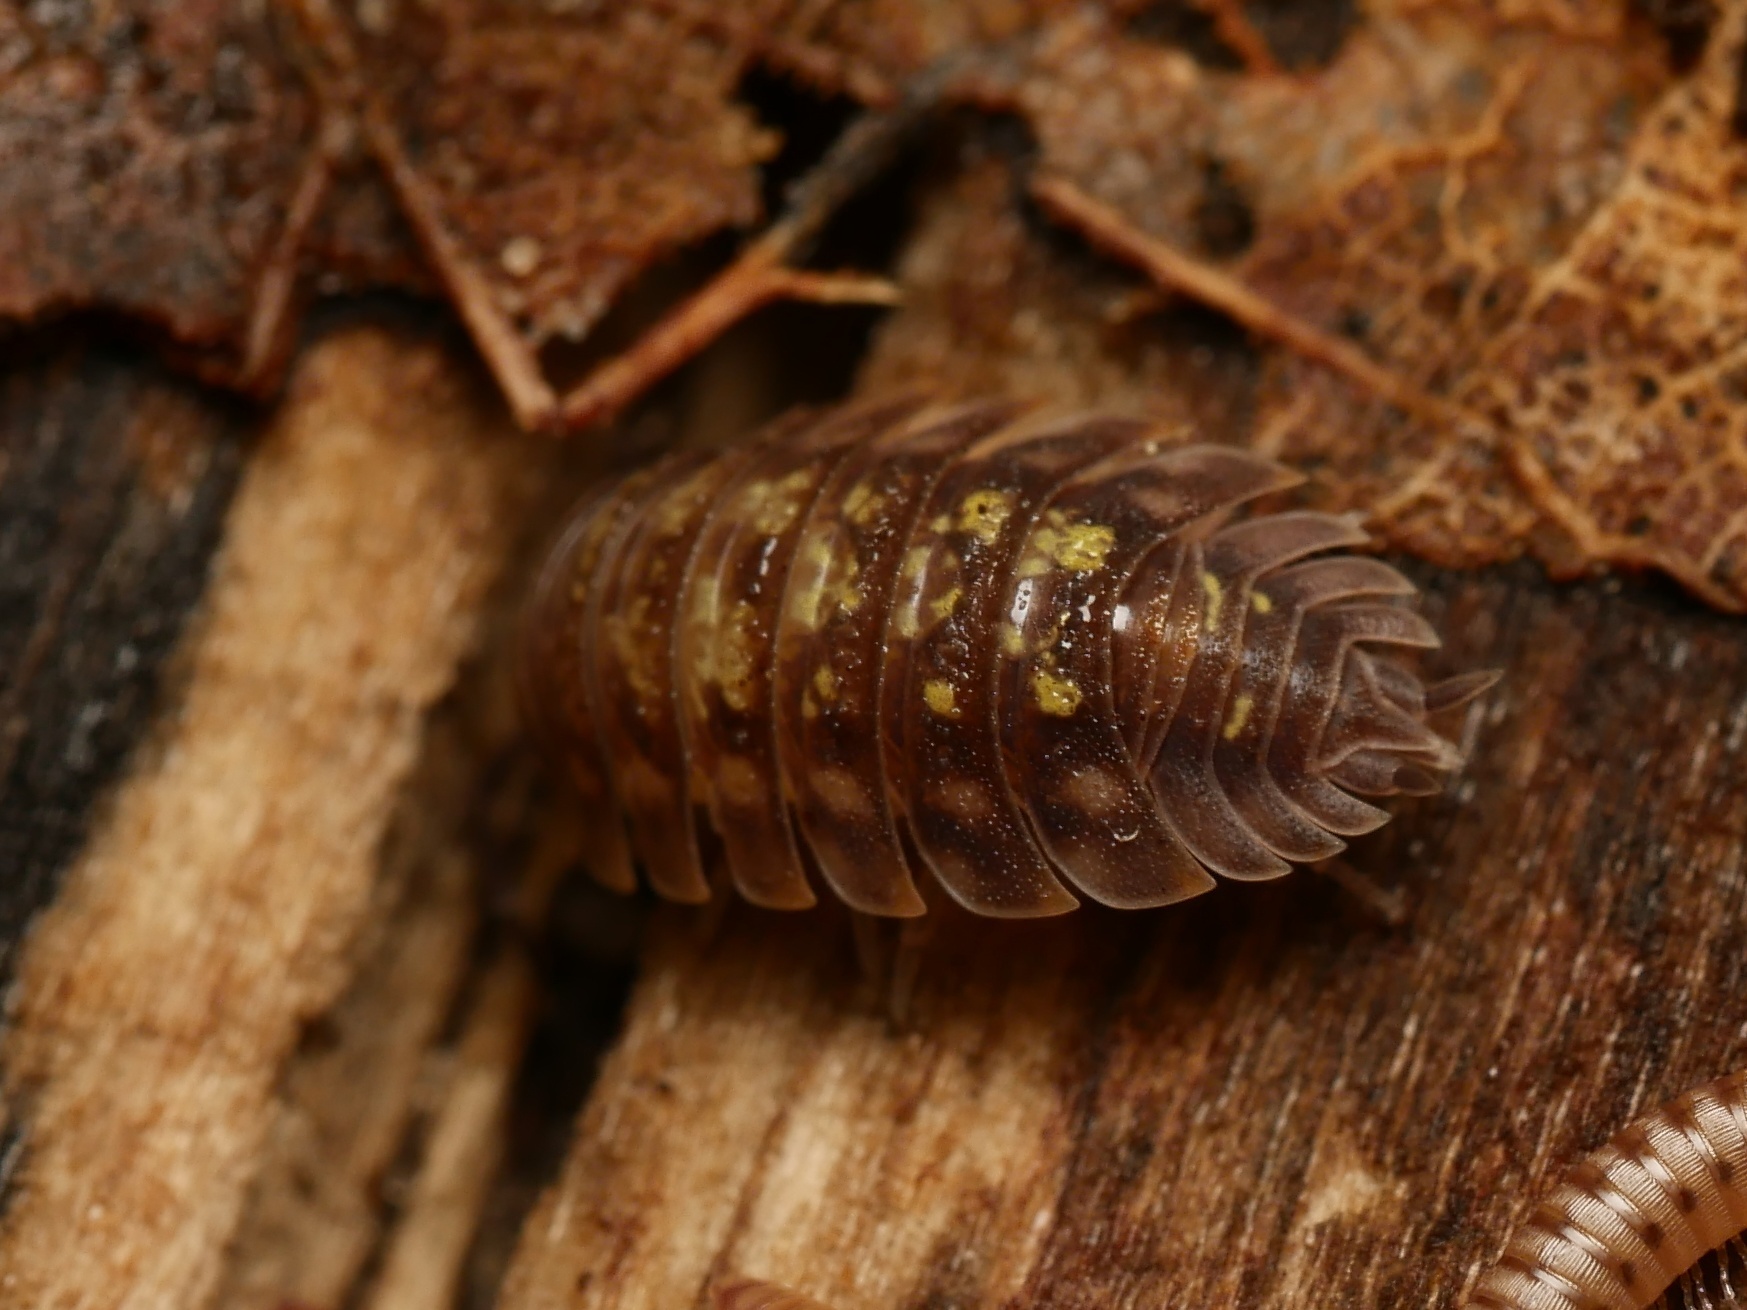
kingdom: Animalia
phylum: Arthropoda
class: Malacostraca
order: Isopoda
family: Oniscidae
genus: Oniscus
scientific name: Oniscus asellus
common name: Common shiny woodlouse
